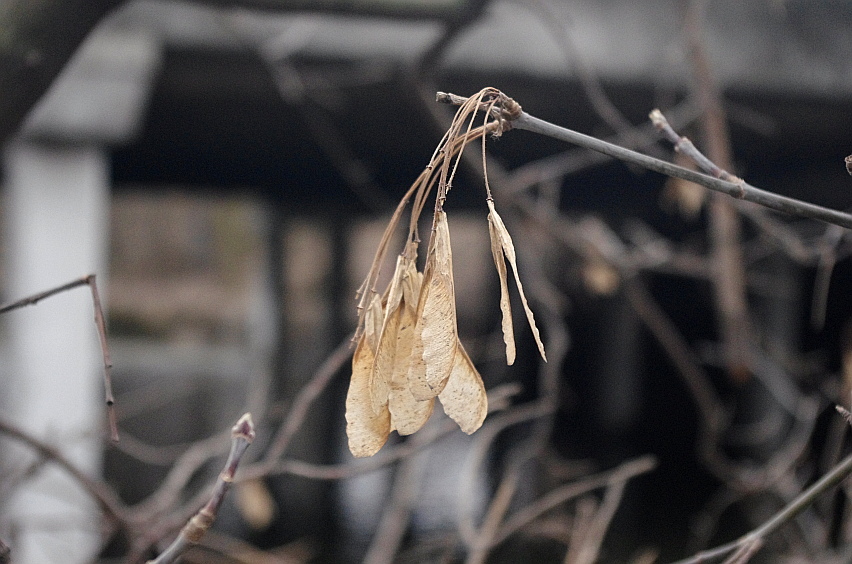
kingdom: Plantae
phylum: Tracheophyta
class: Magnoliopsida
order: Sapindales
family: Sapindaceae
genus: Acer
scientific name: Acer negundo
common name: Ashleaf maple
